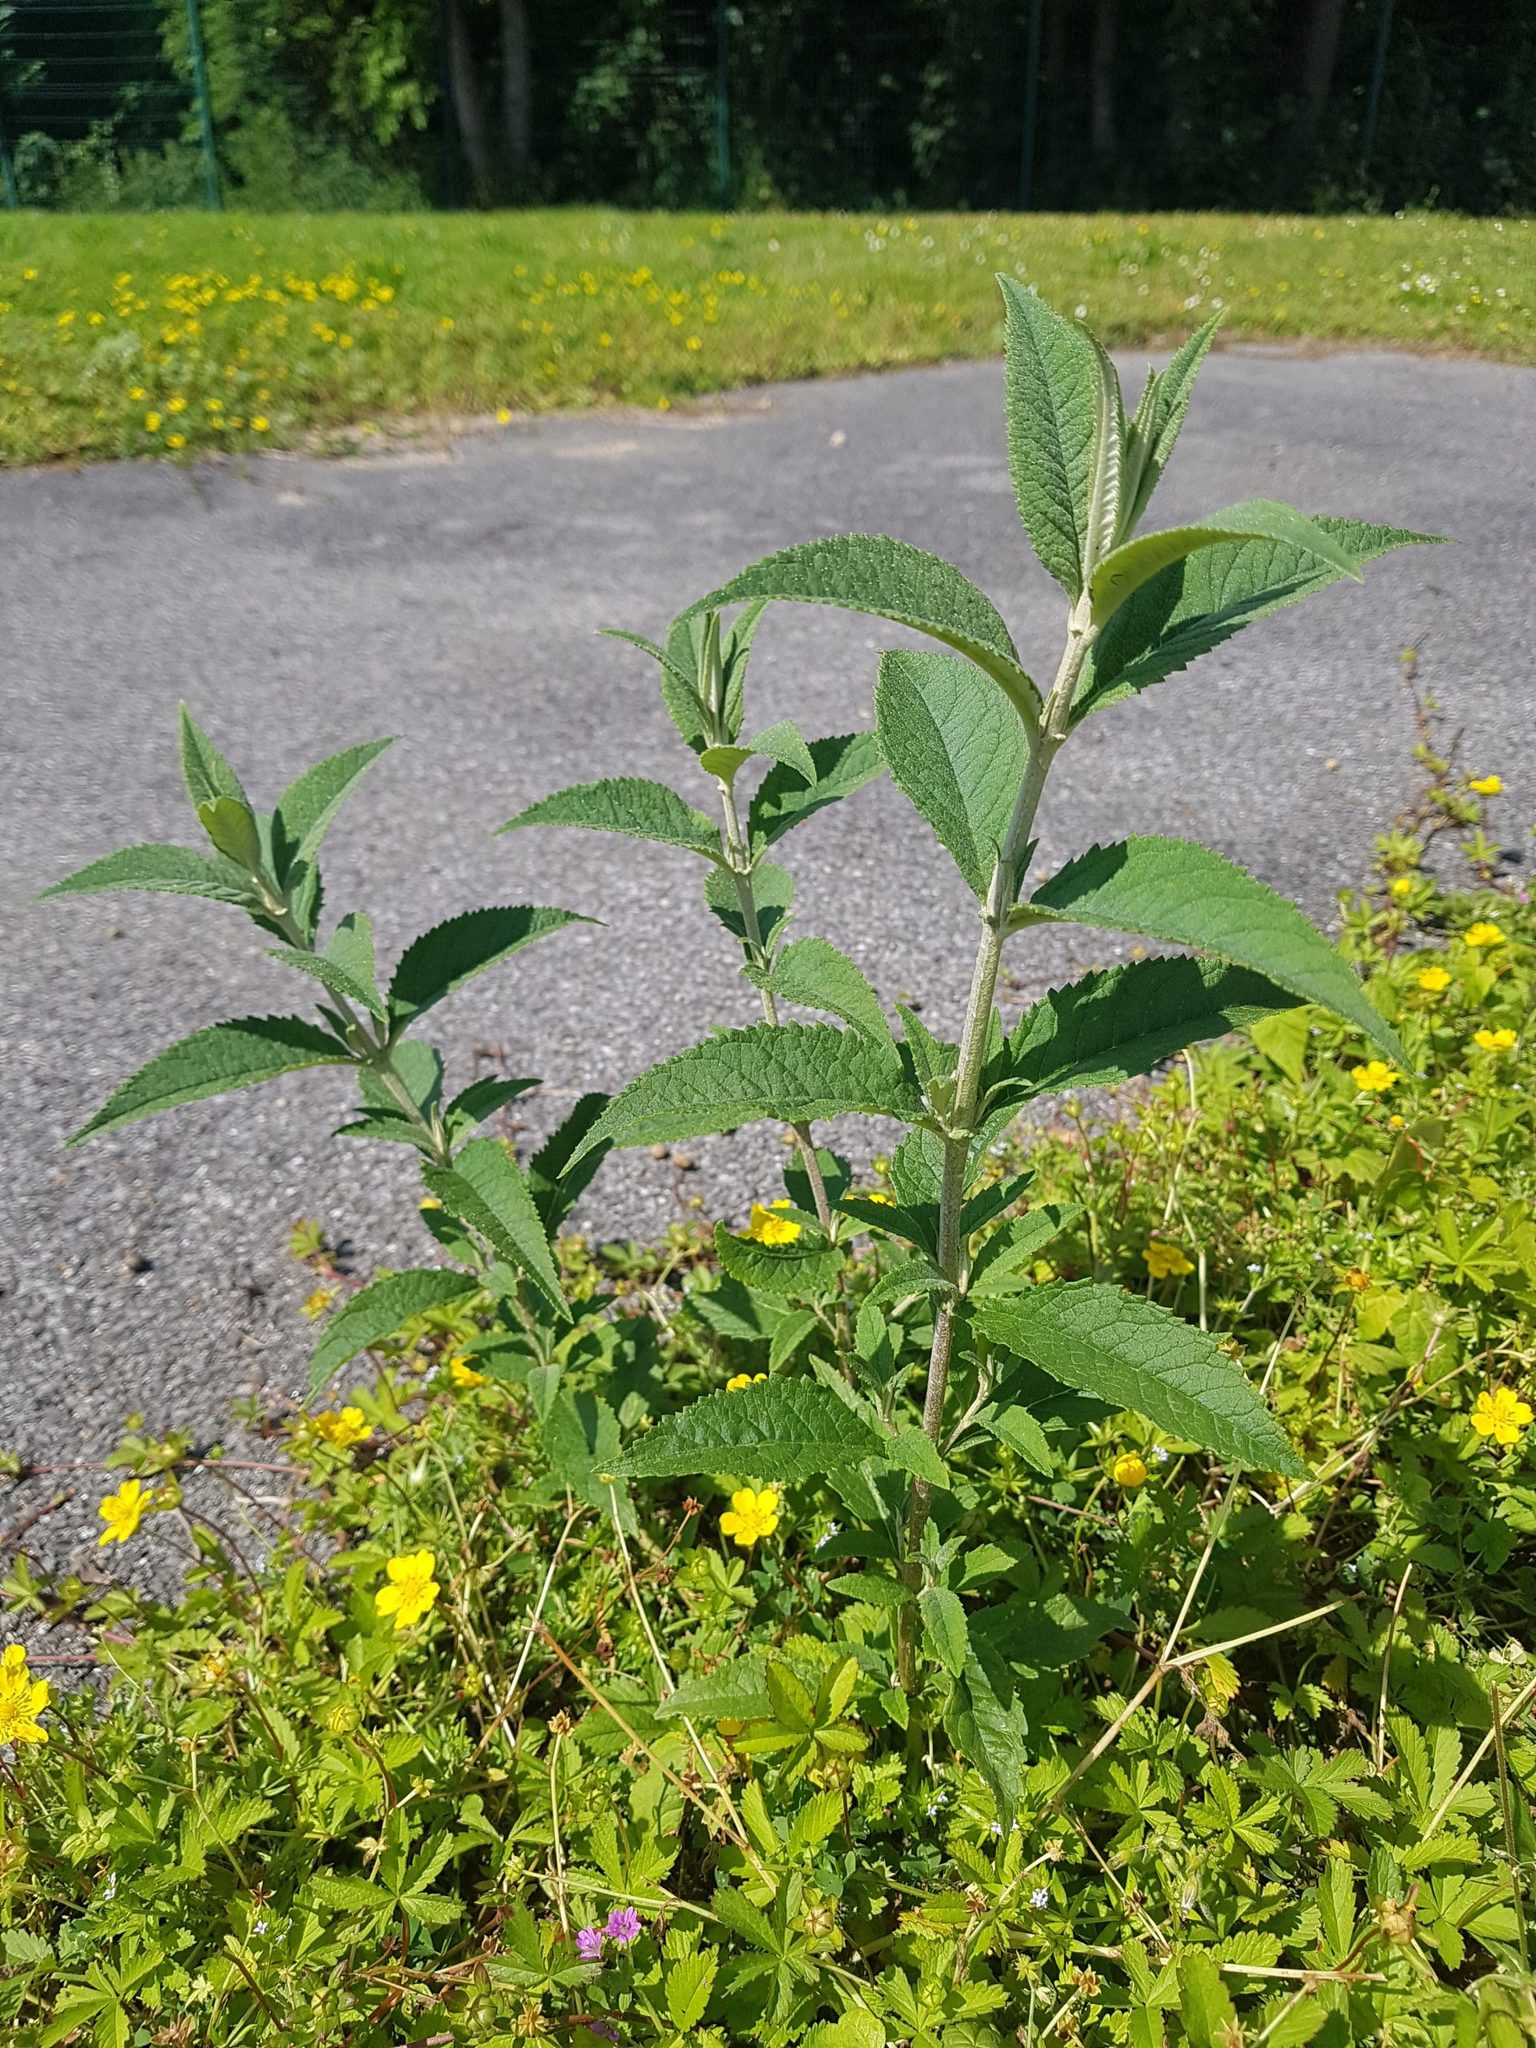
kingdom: Plantae
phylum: Tracheophyta
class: Magnoliopsida
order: Lamiales
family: Scrophulariaceae
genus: Buddleja
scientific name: Buddleja davidii
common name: Butterfly-bush
